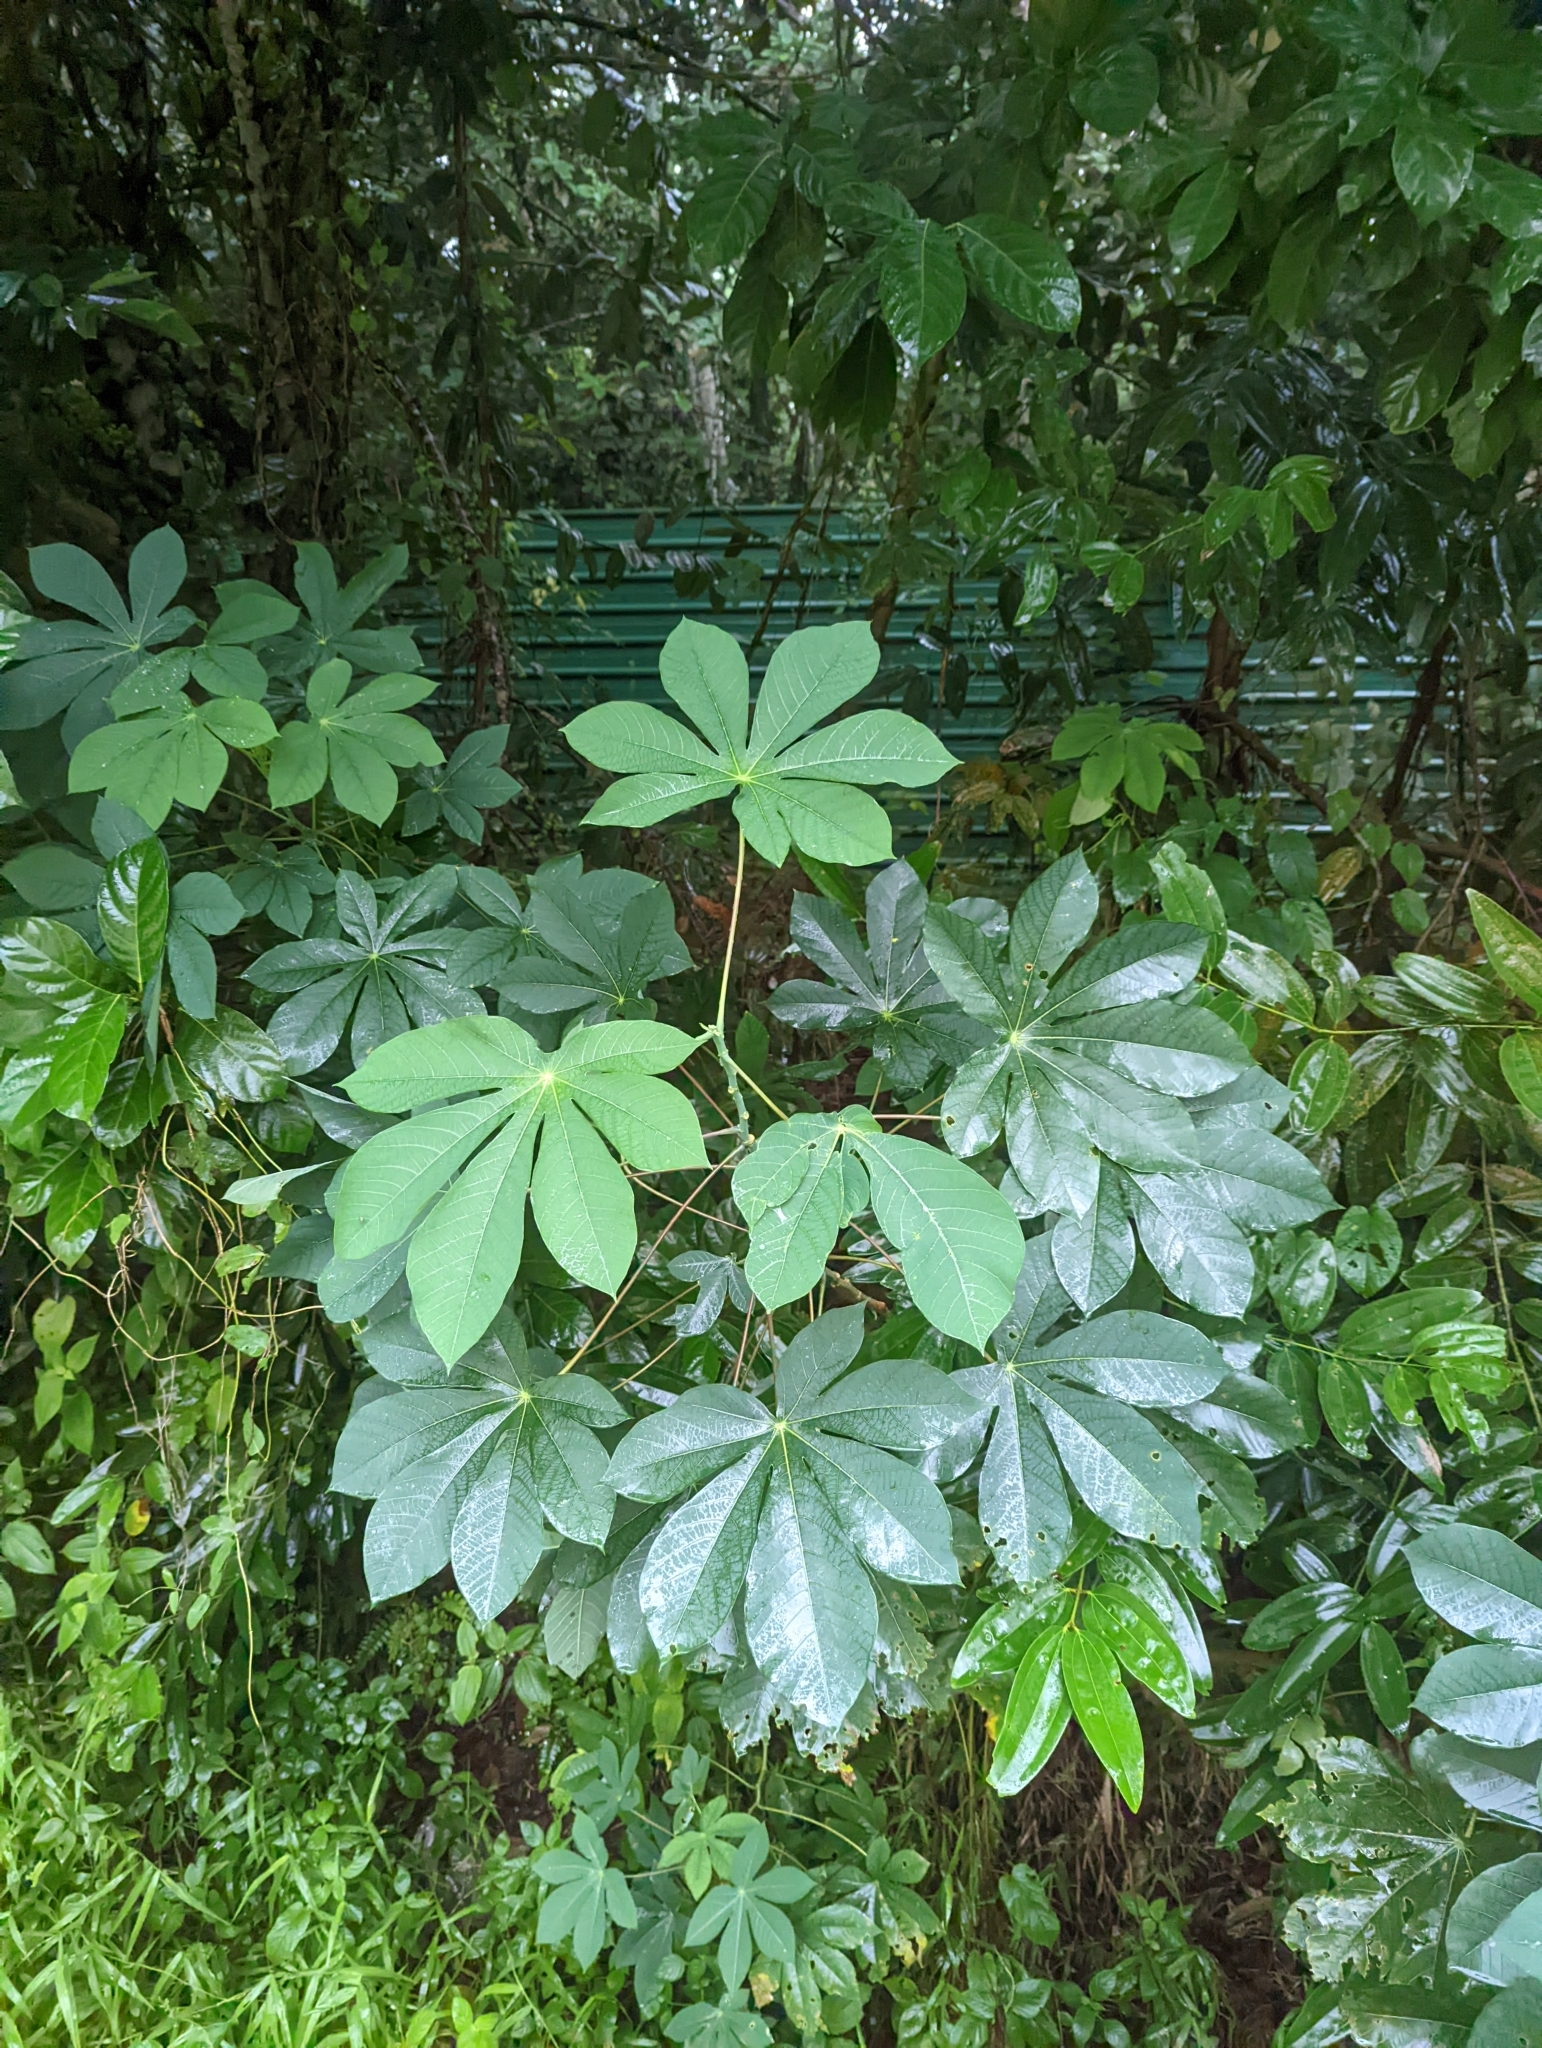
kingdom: Plantae
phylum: Tracheophyta
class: Magnoliopsida
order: Malpighiales
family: Euphorbiaceae
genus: Manihot
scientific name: Manihot carthagenensis
